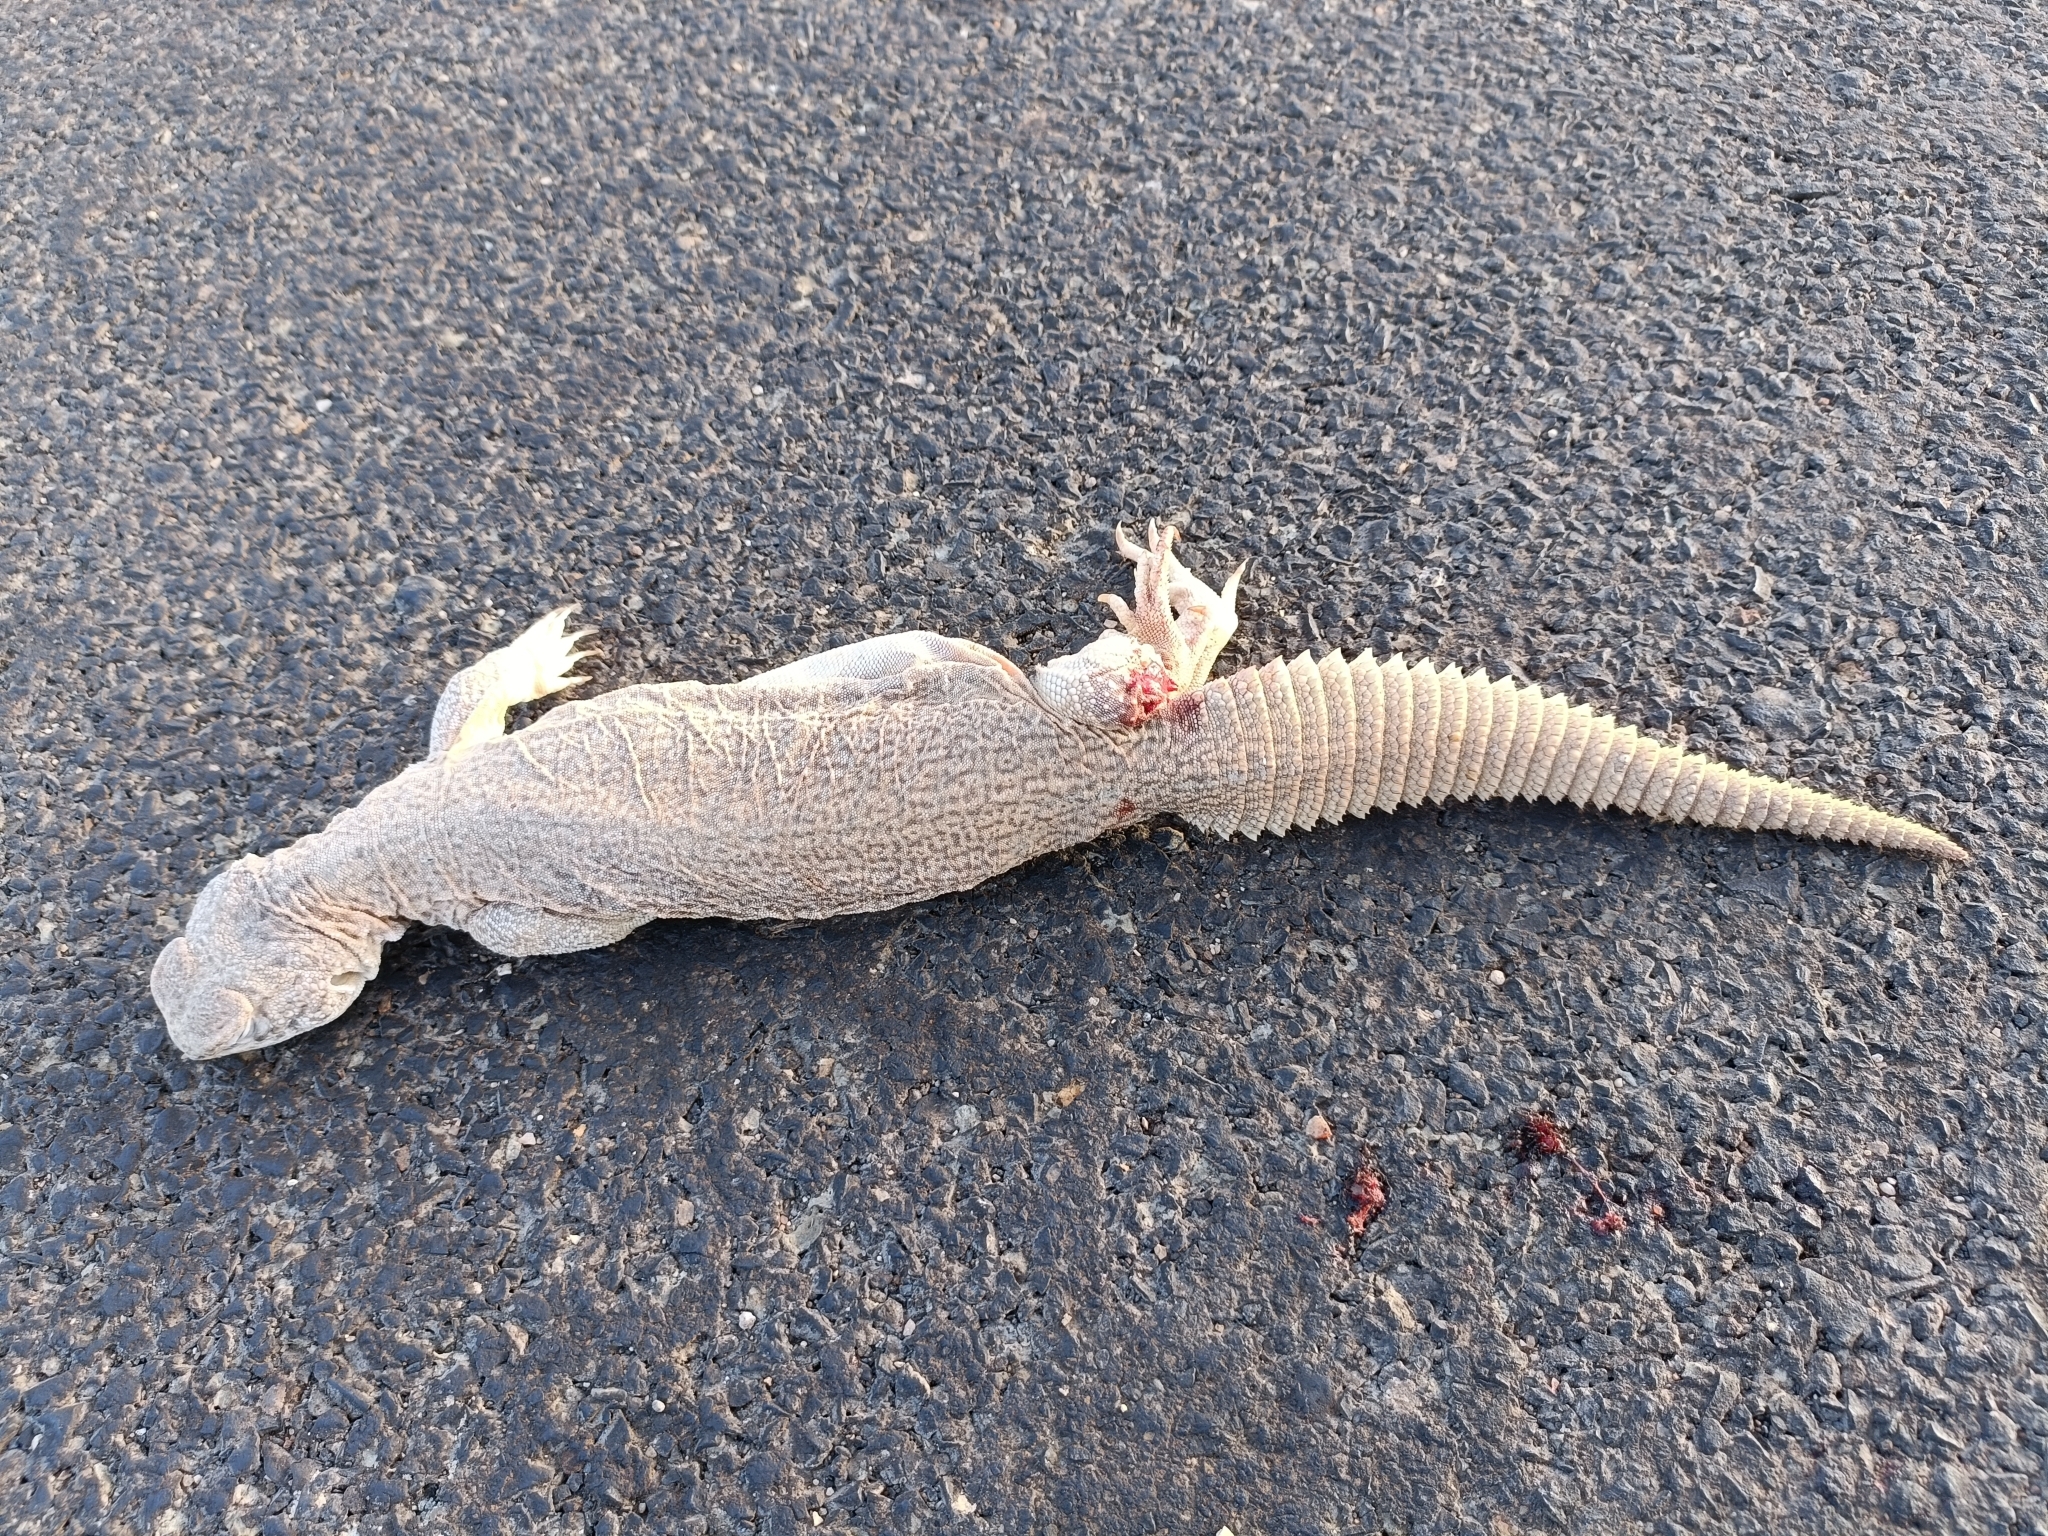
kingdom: Animalia
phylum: Chordata
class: Squamata
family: Agamidae
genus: Saara
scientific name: Saara hardwickii
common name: Hardwick's spiny-tailed lizard
